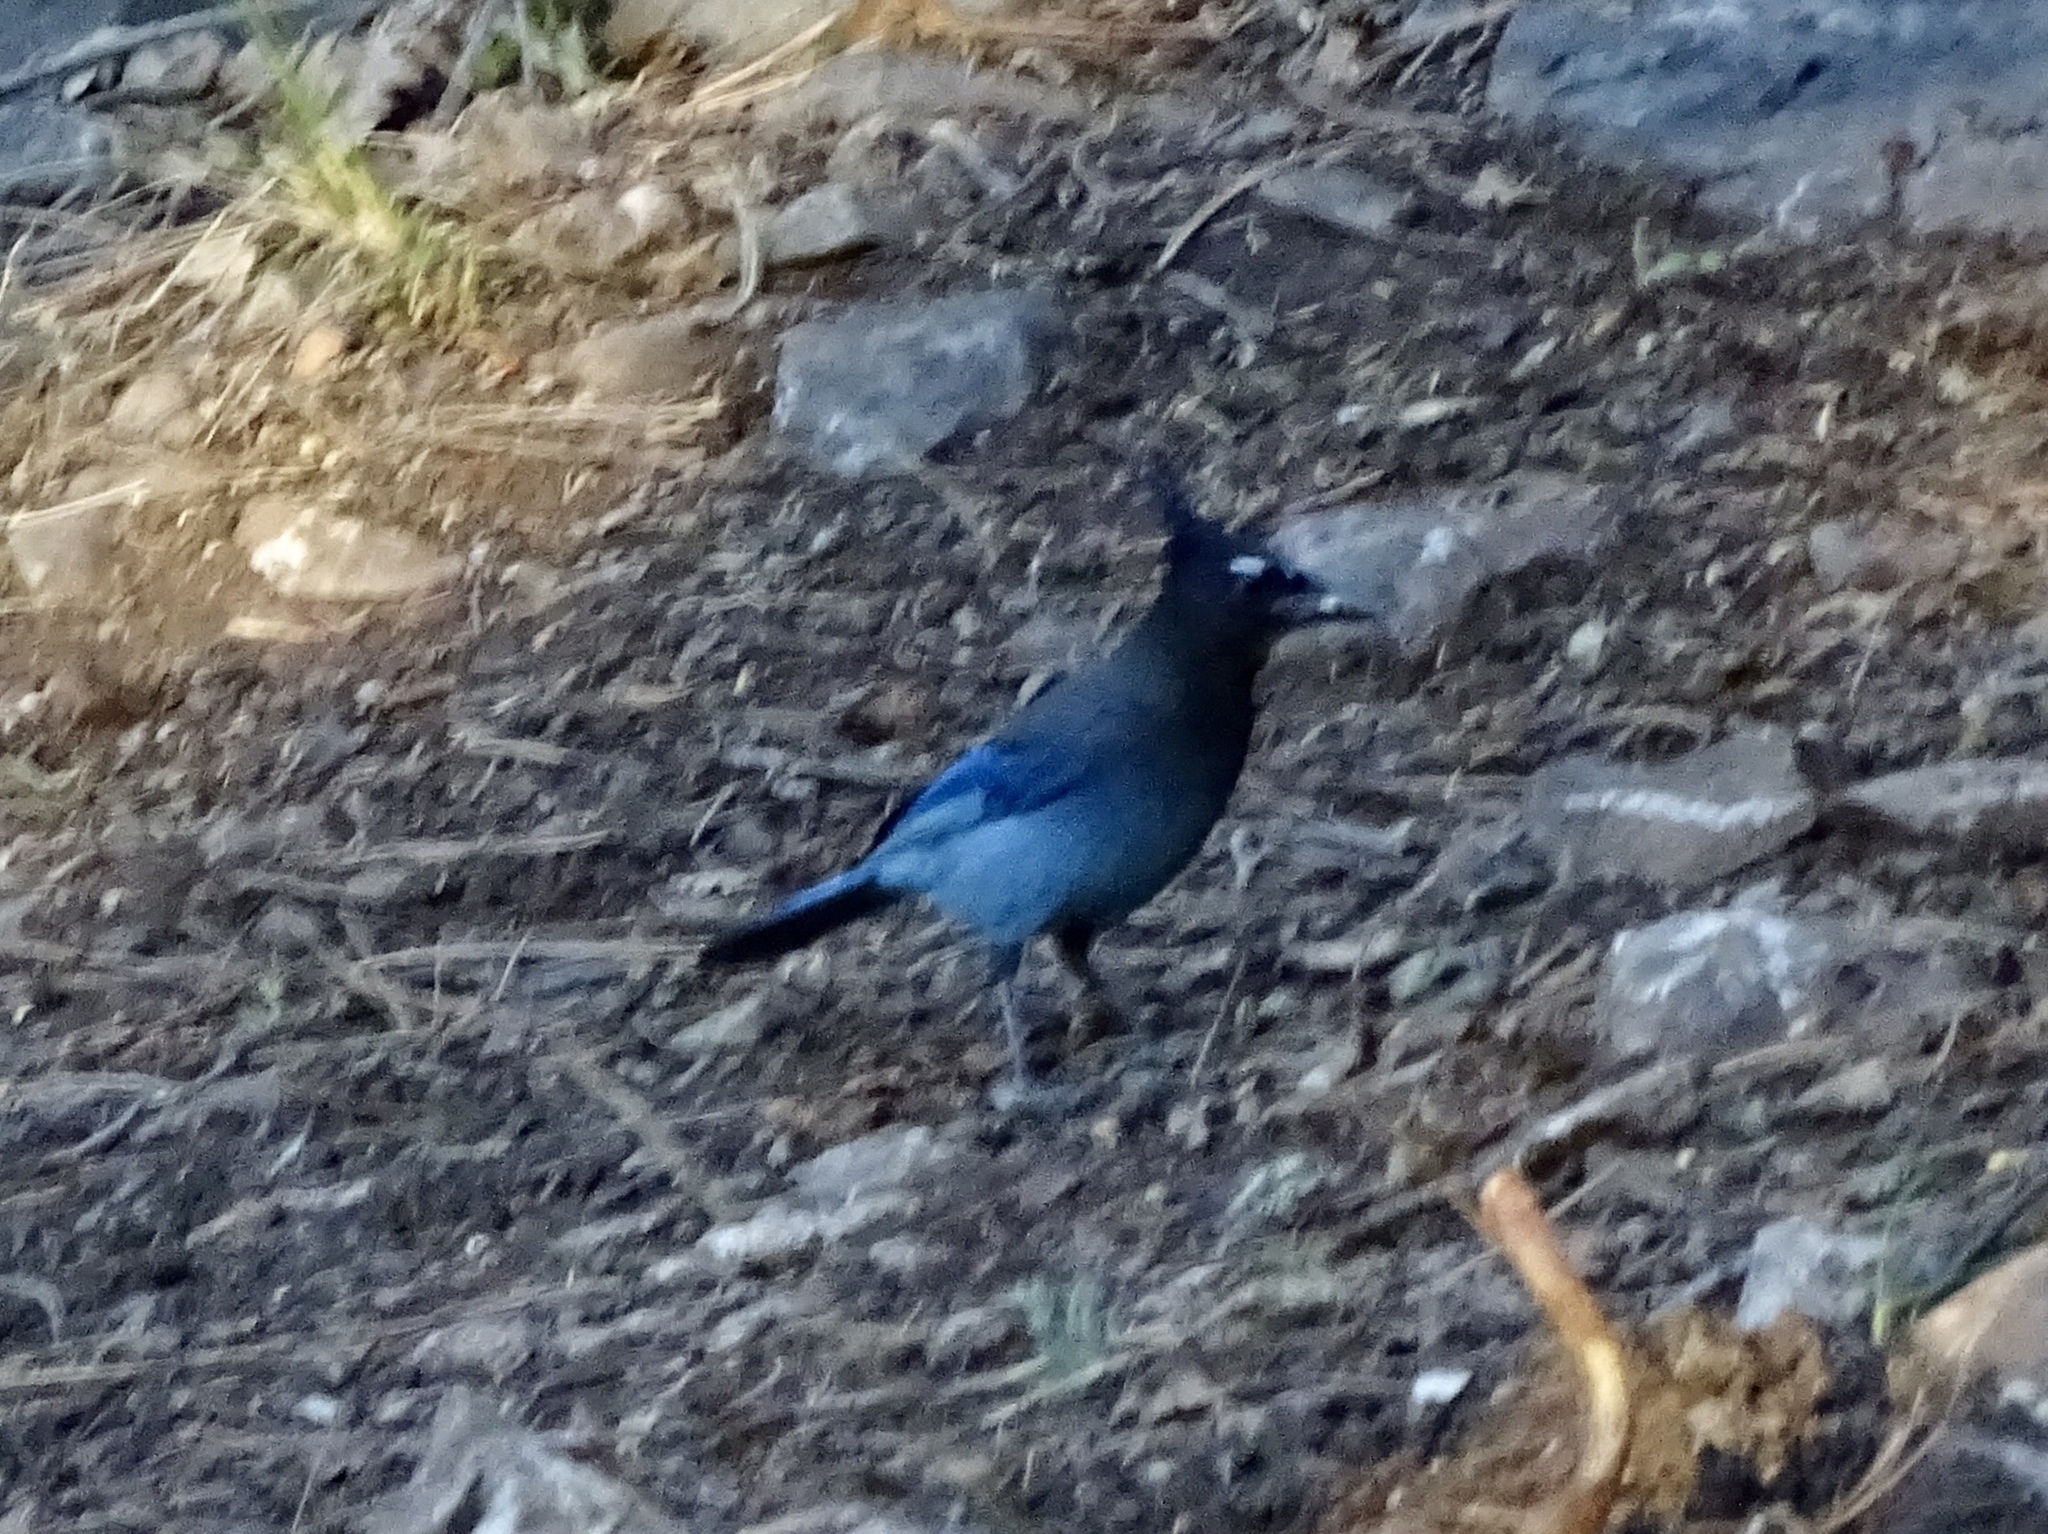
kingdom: Animalia
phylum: Chordata
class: Aves
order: Passeriformes
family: Corvidae
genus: Cyanocitta
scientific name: Cyanocitta stelleri
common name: Steller's jay
